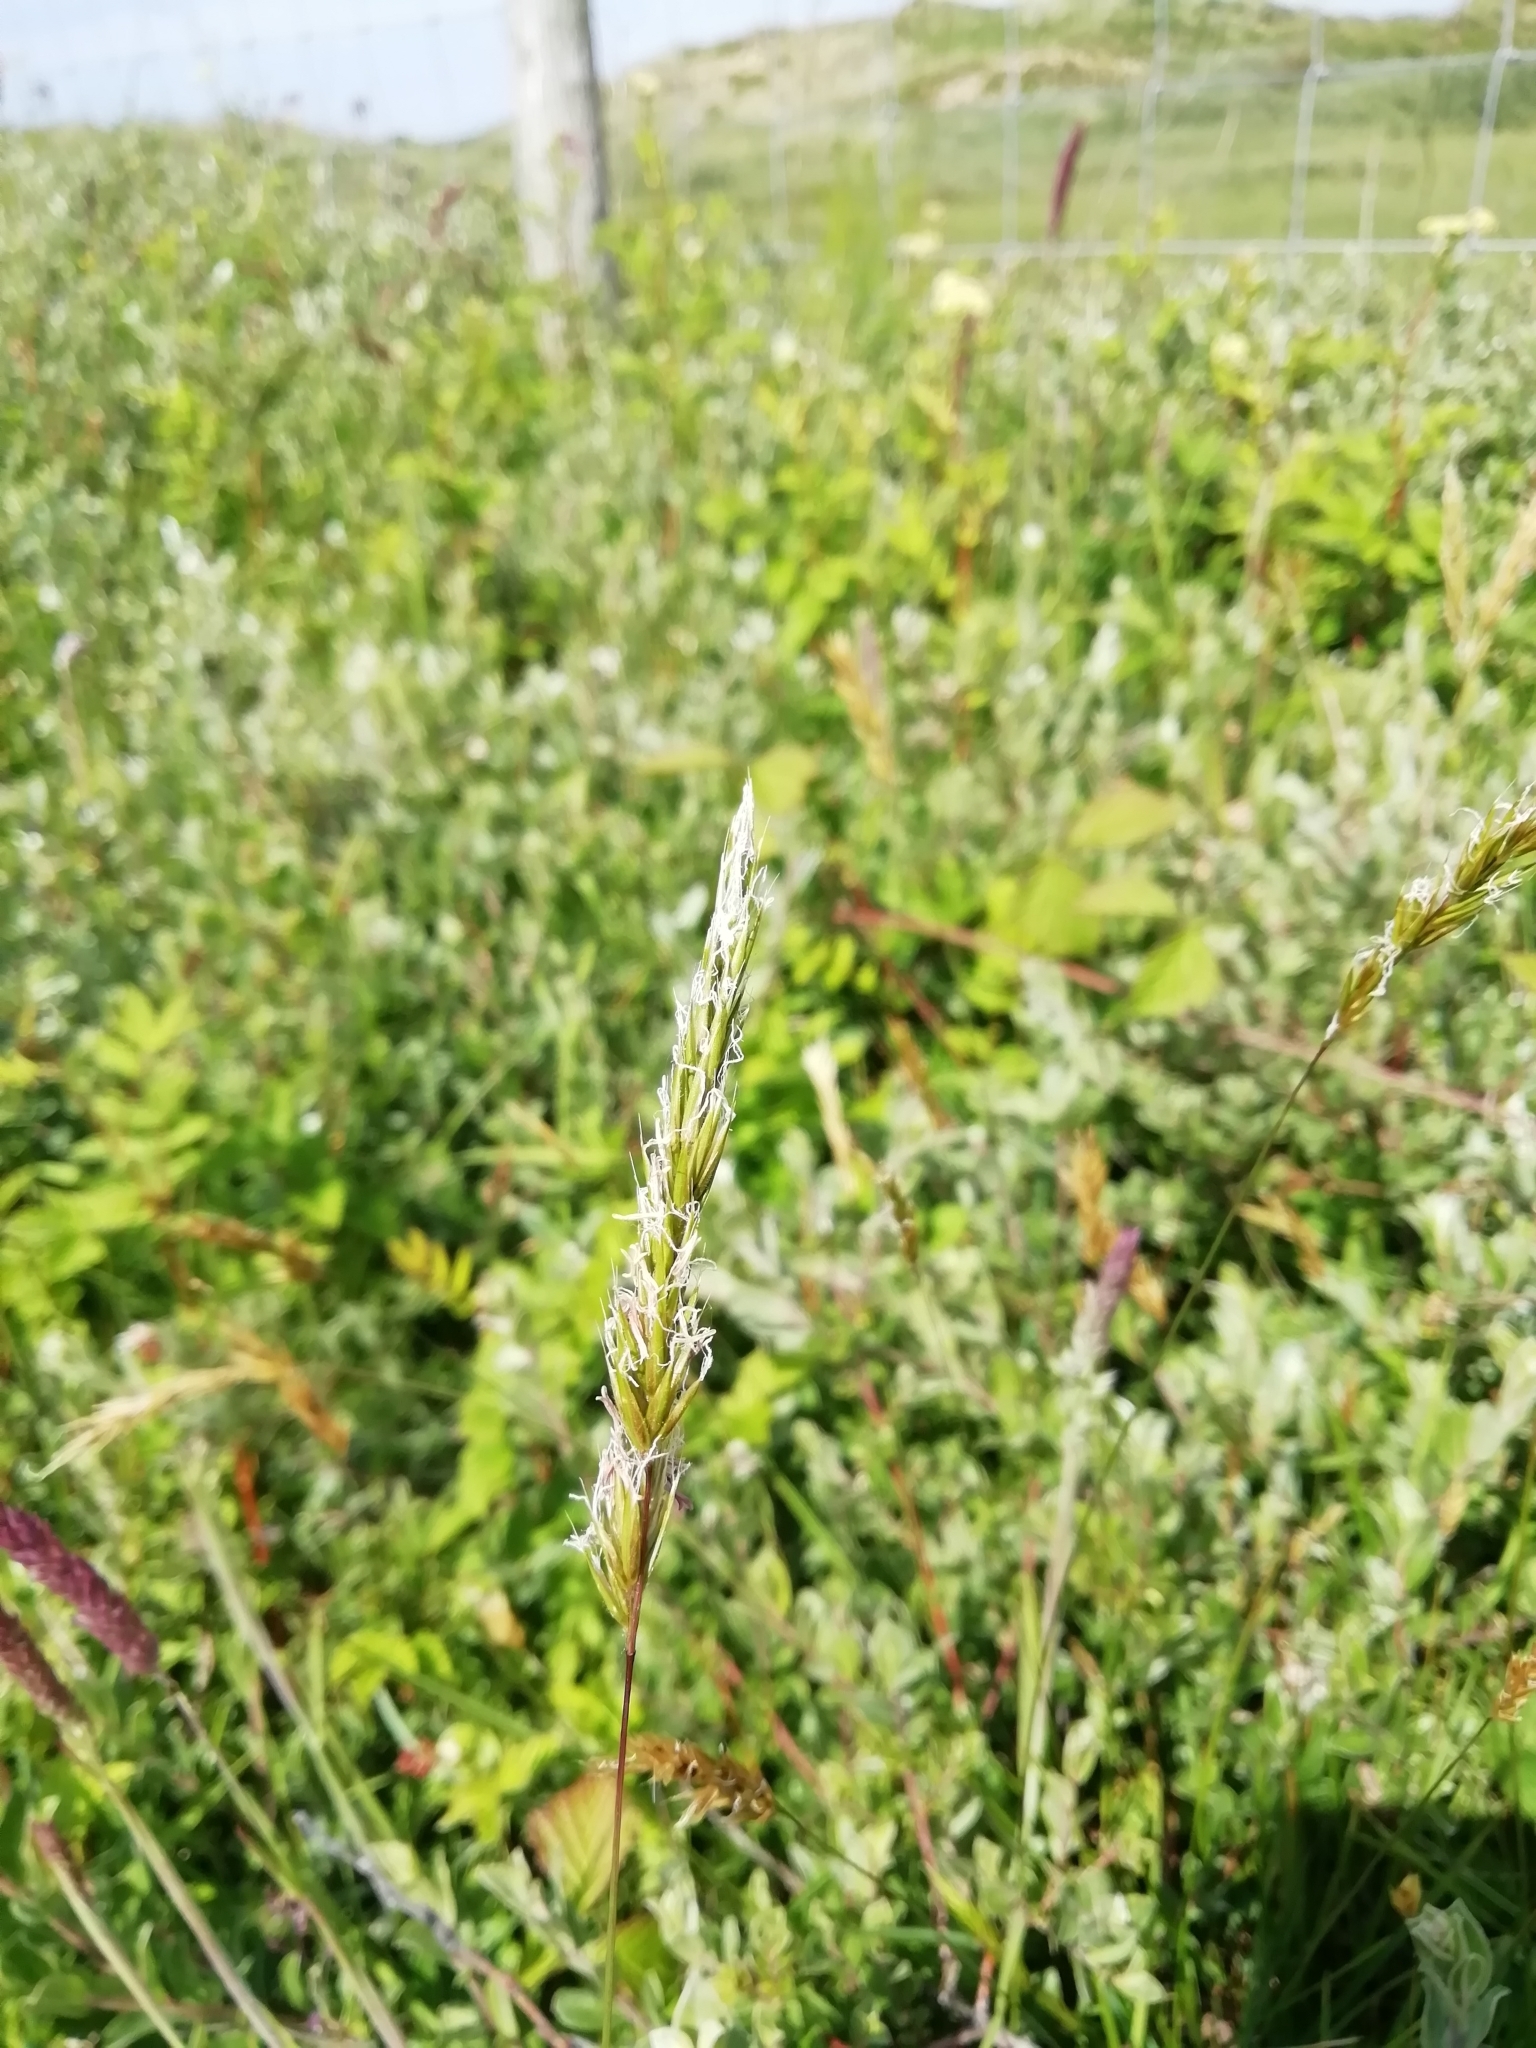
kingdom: Plantae
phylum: Tracheophyta
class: Liliopsida
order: Poales
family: Poaceae
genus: Anthoxanthum
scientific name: Anthoxanthum odoratum
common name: Sweet vernalgrass
